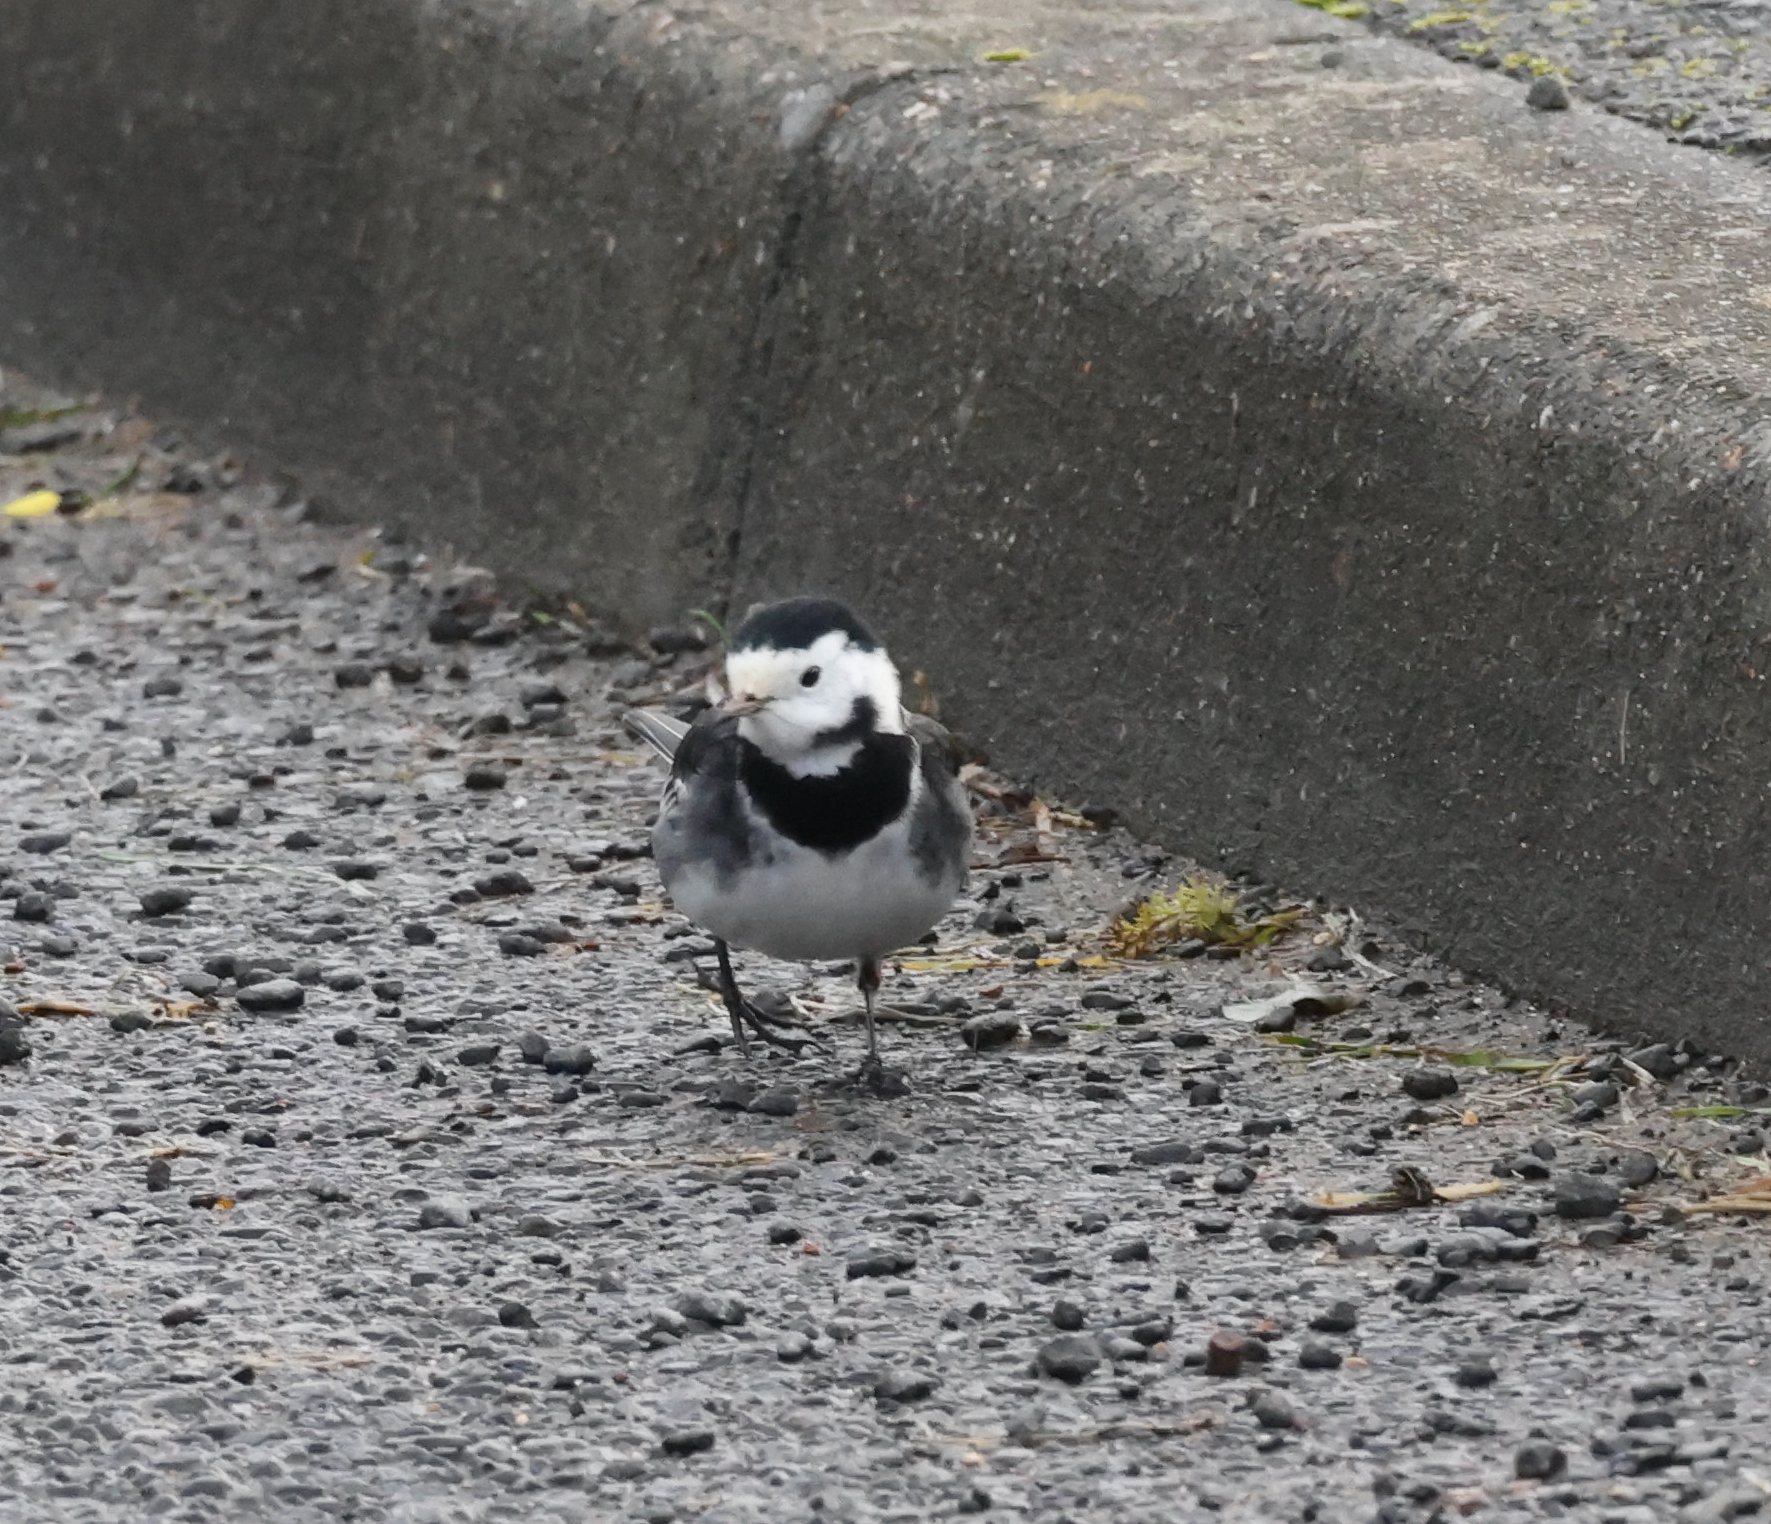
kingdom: Animalia
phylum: Chordata
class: Aves
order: Passeriformes
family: Motacillidae
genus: Motacilla
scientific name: Motacilla alba
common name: White wagtail
